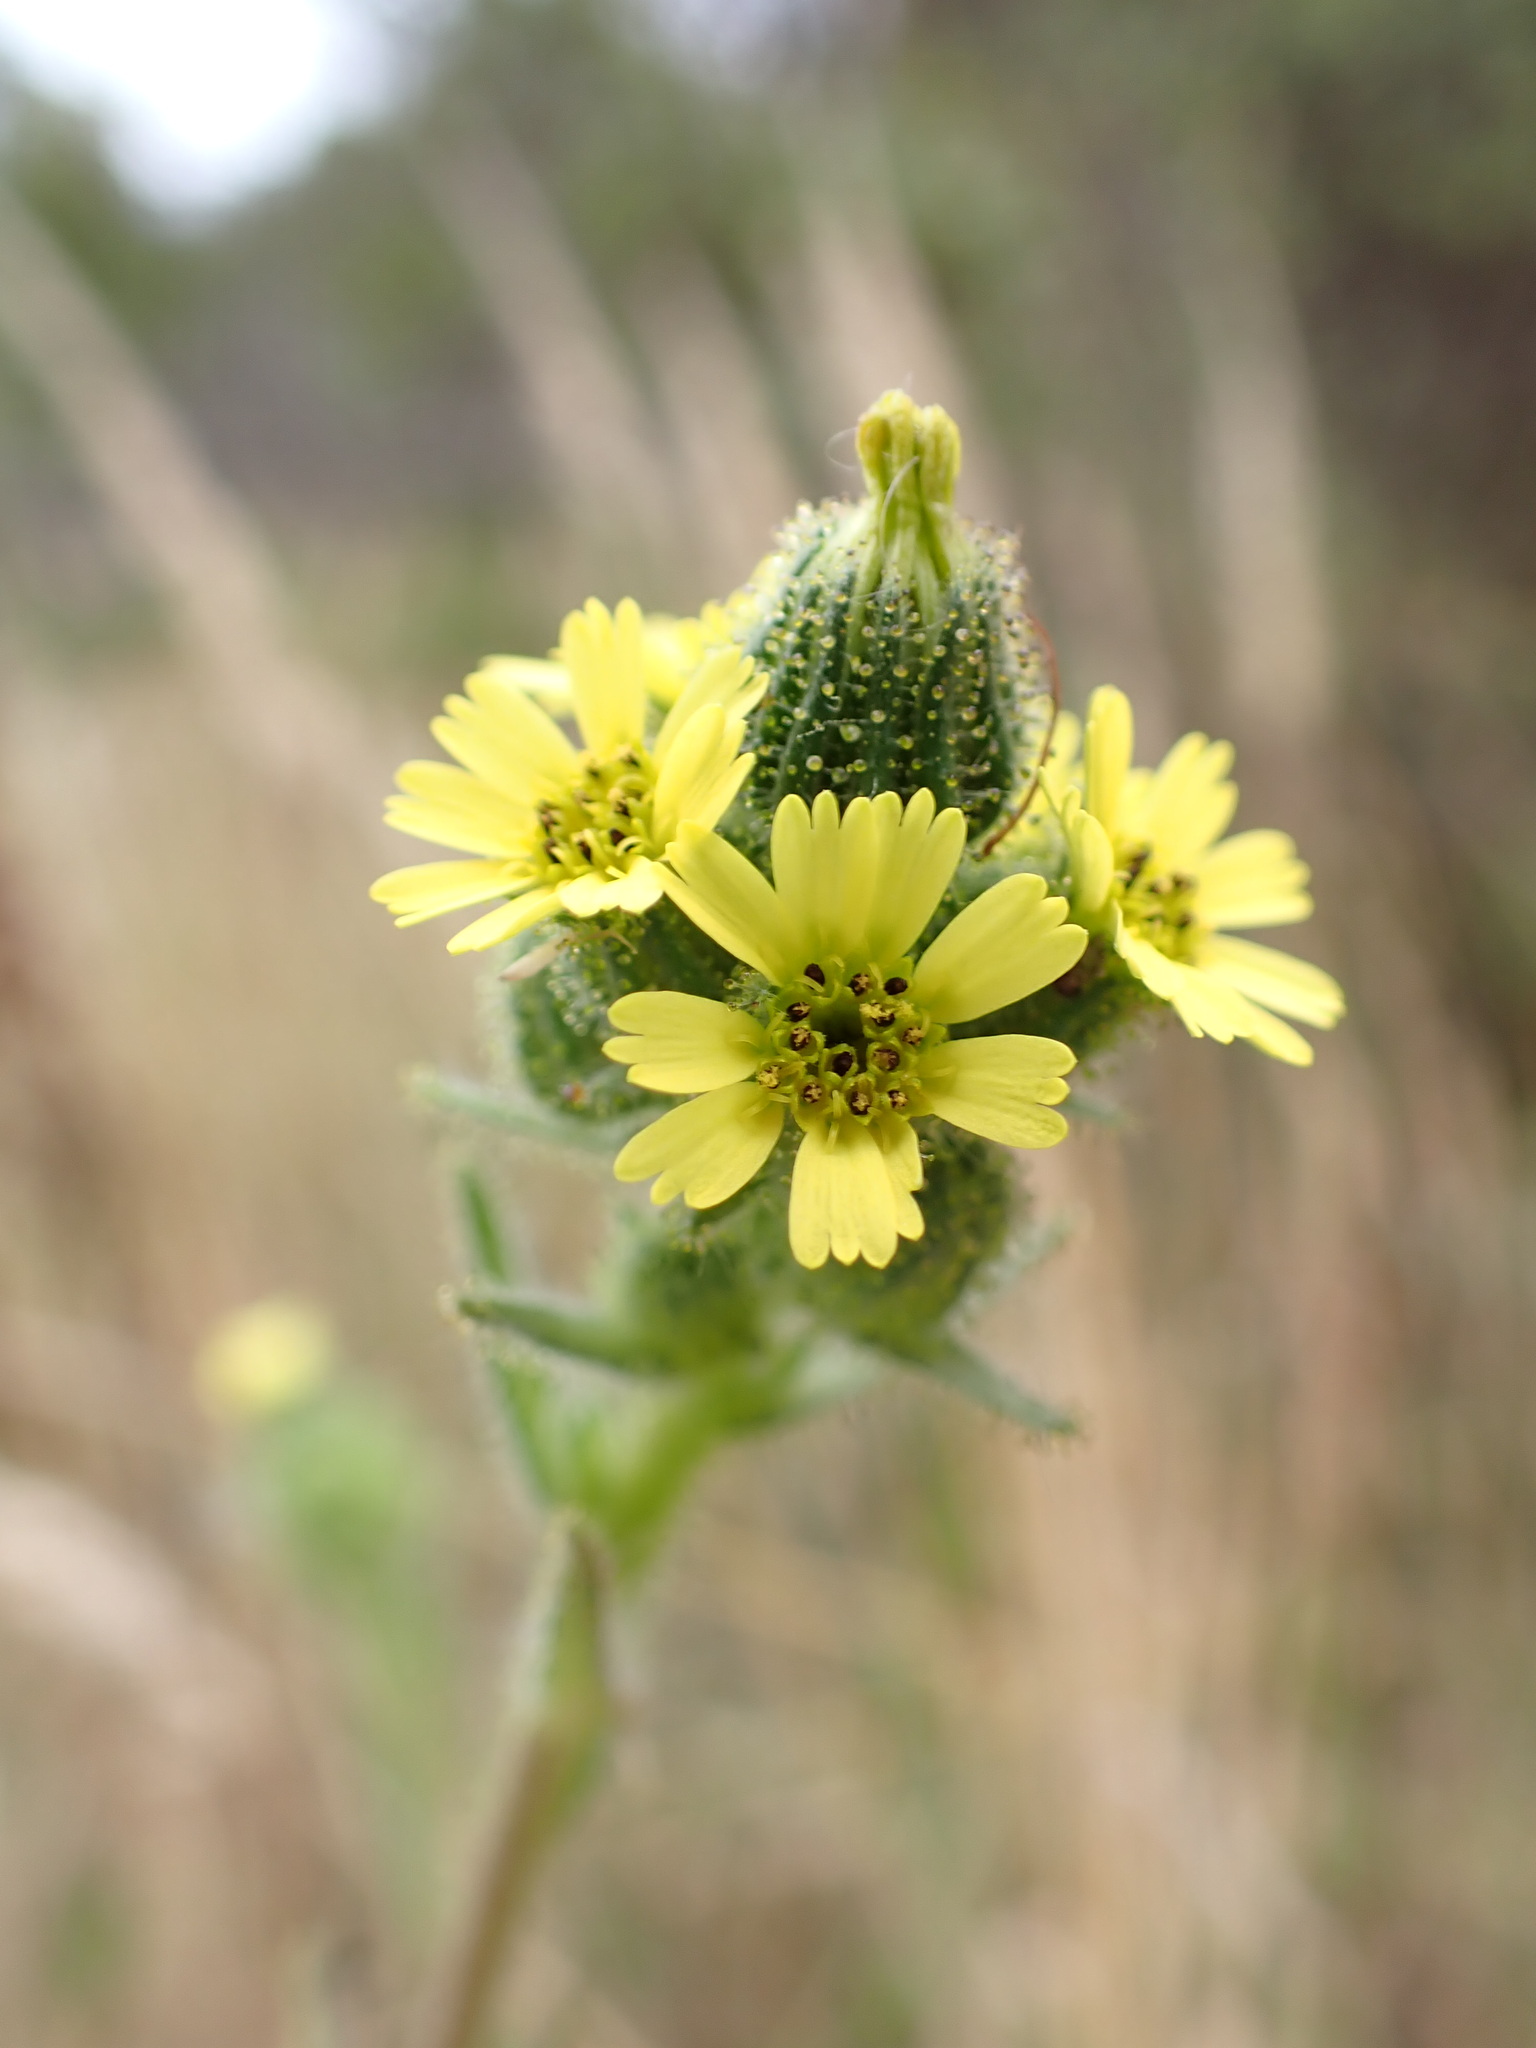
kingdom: Plantae
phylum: Tracheophyta
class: Magnoliopsida
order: Asterales
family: Asteraceae
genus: Madia
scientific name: Madia sativa
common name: Coast tarweed
